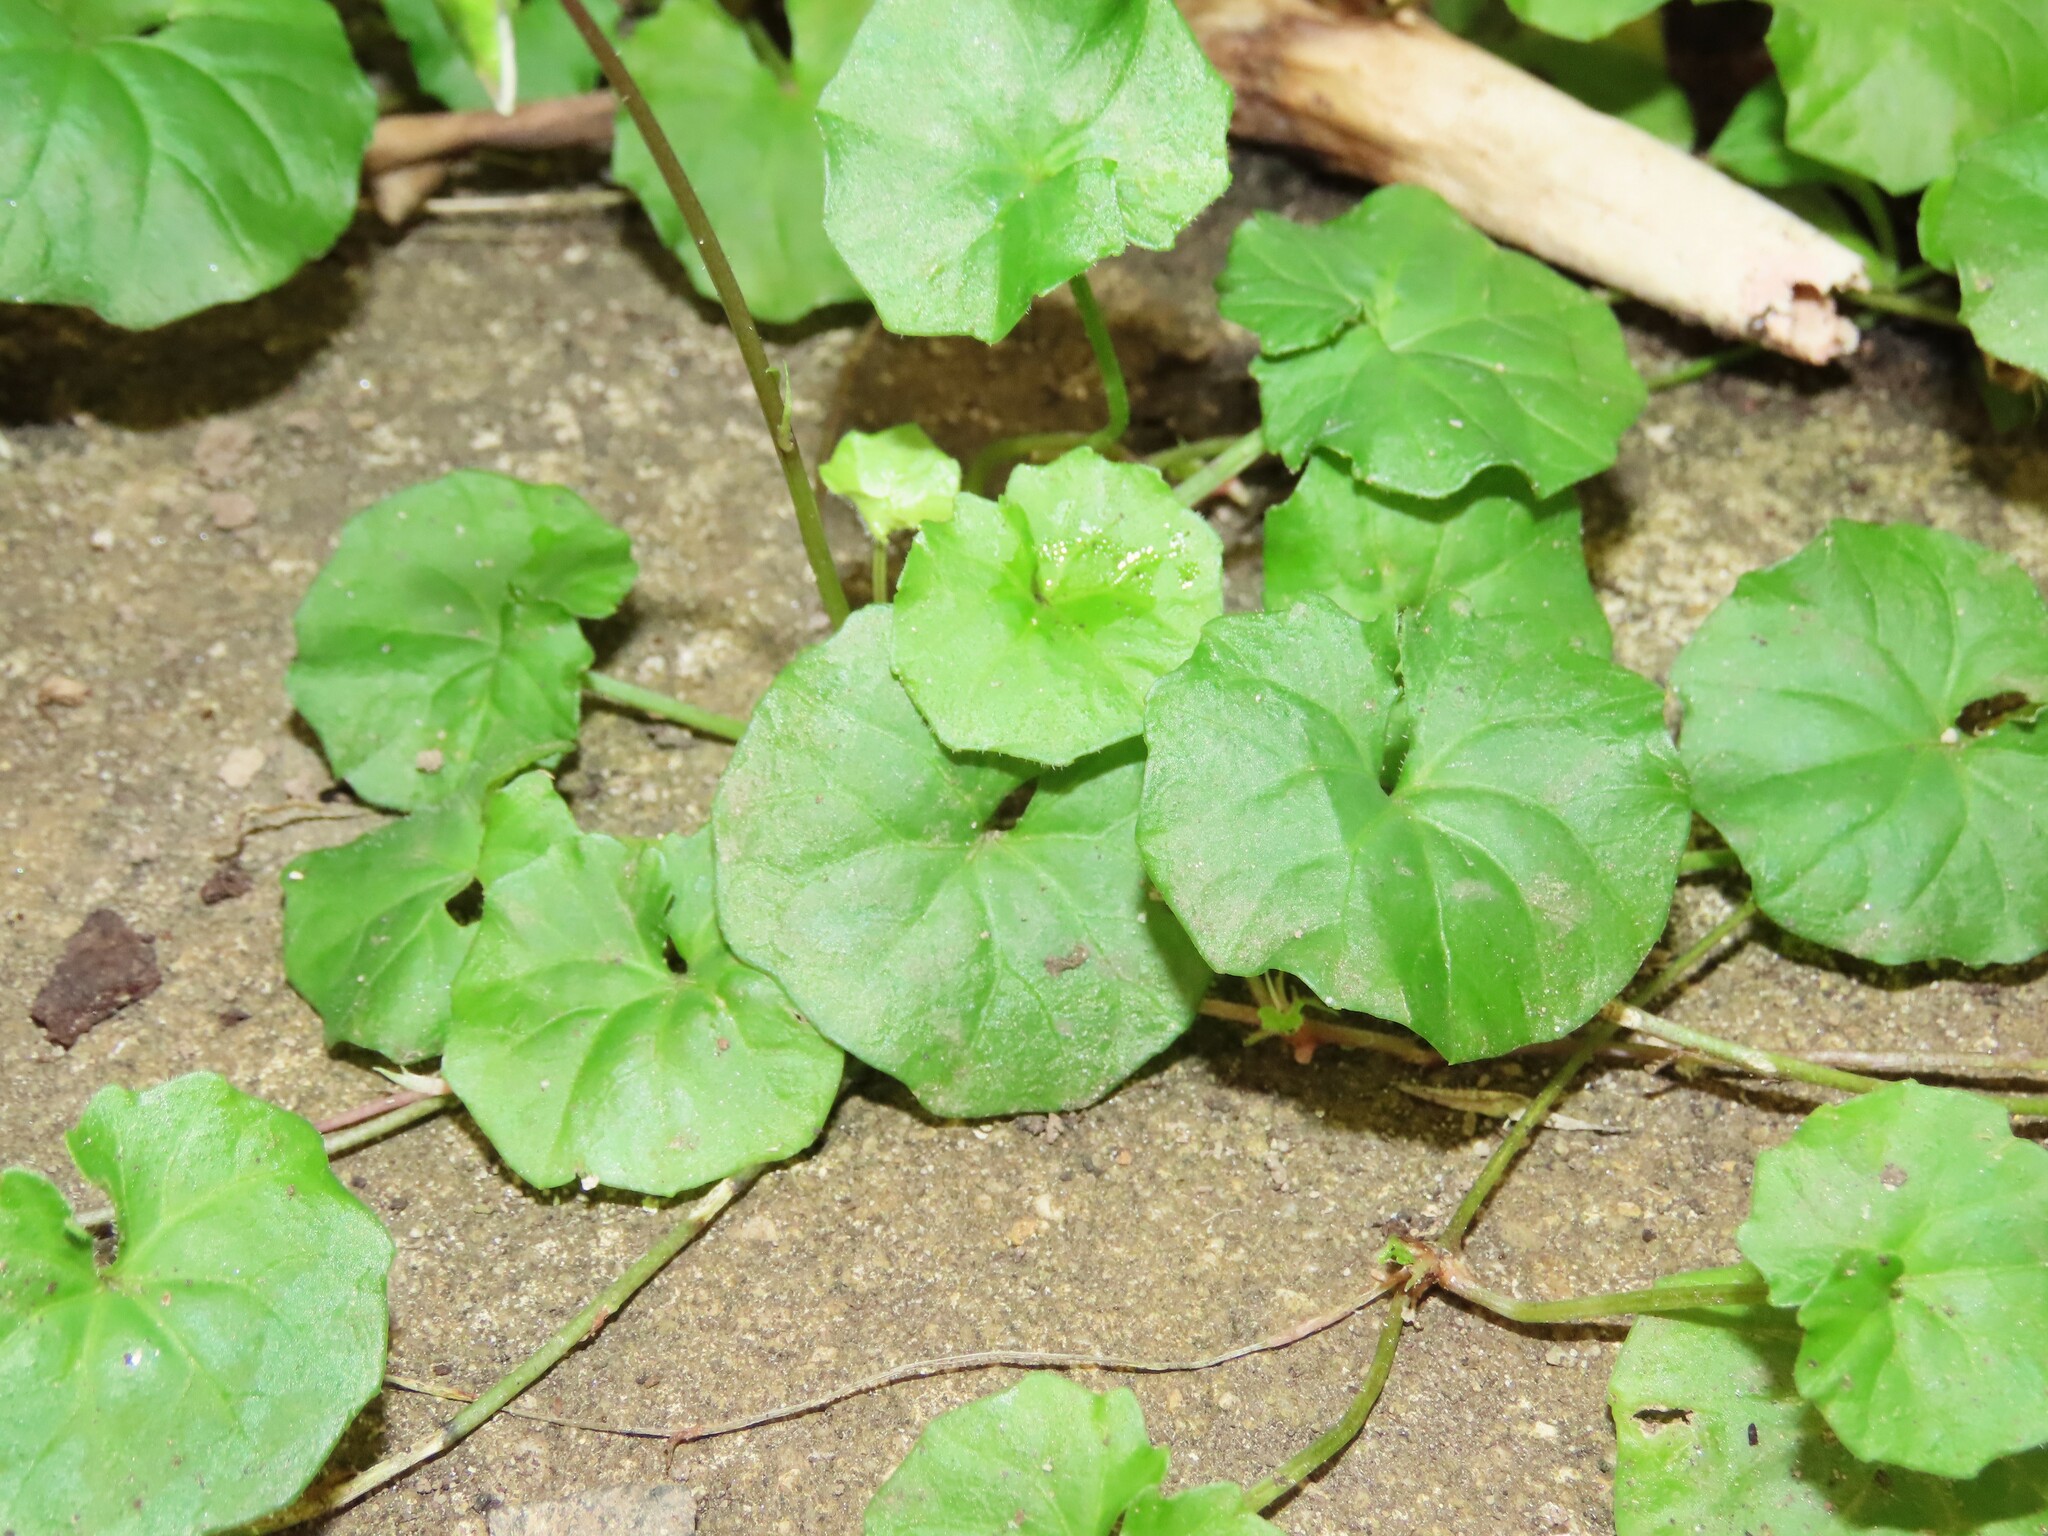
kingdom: Plantae
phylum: Tracheophyta
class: Magnoliopsida
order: Malpighiales
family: Violaceae
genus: Viola
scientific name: Viola banksii
